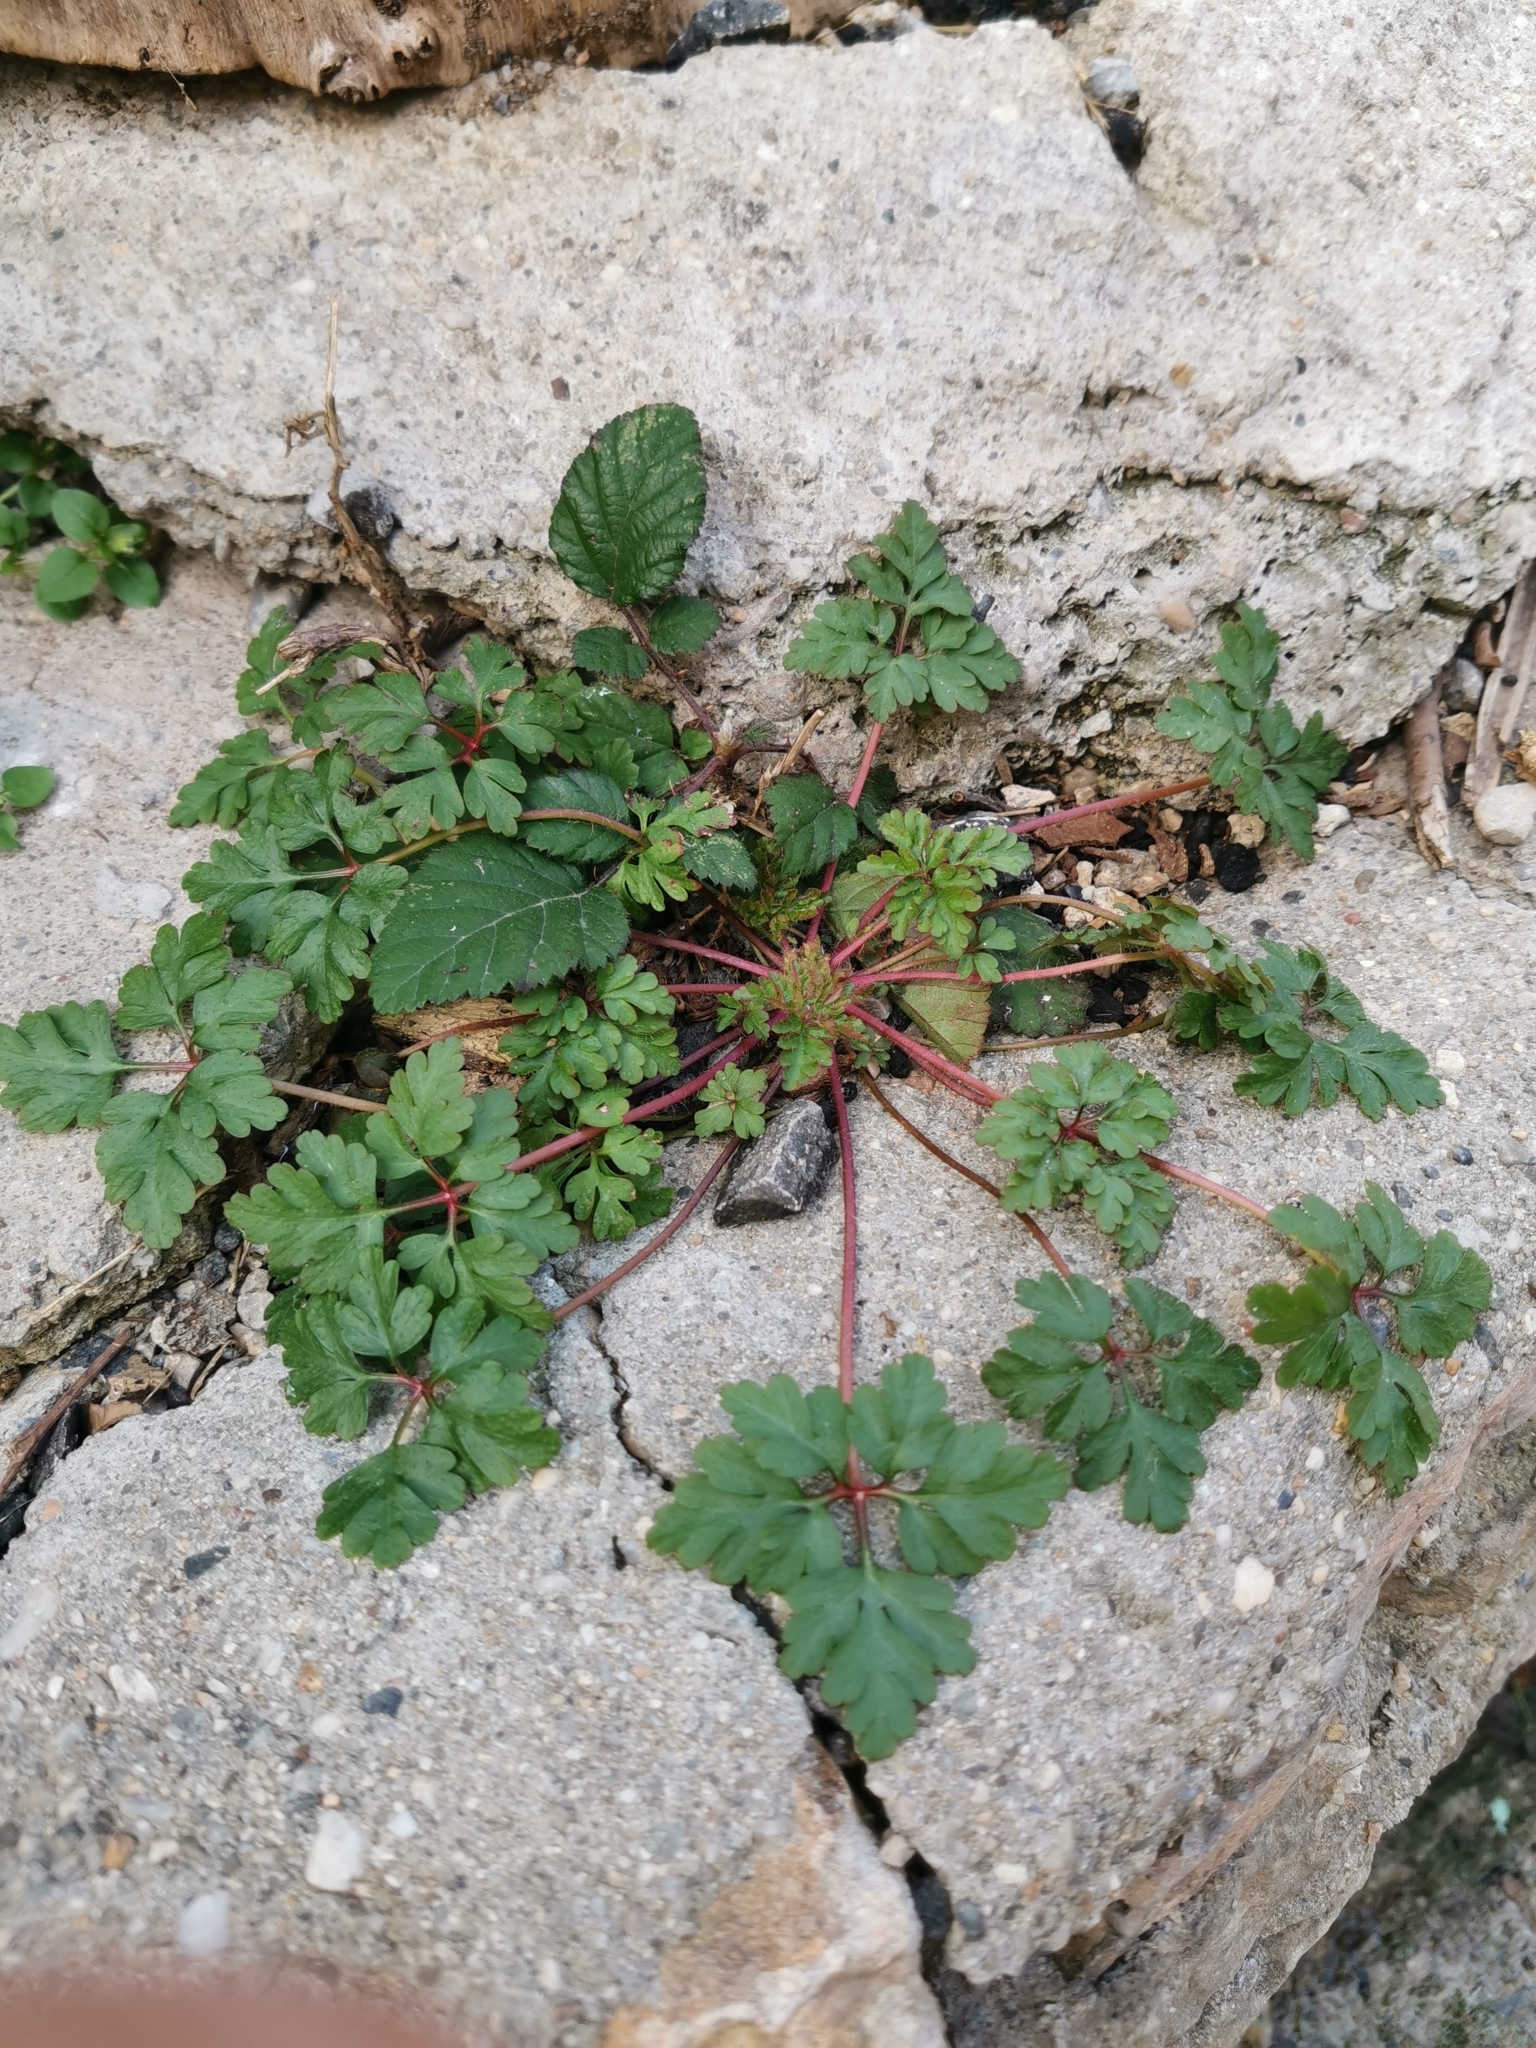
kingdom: Plantae
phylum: Tracheophyta
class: Magnoliopsida
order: Geraniales
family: Geraniaceae
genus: Geranium
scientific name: Geranium robertianum
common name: Herb-robert
